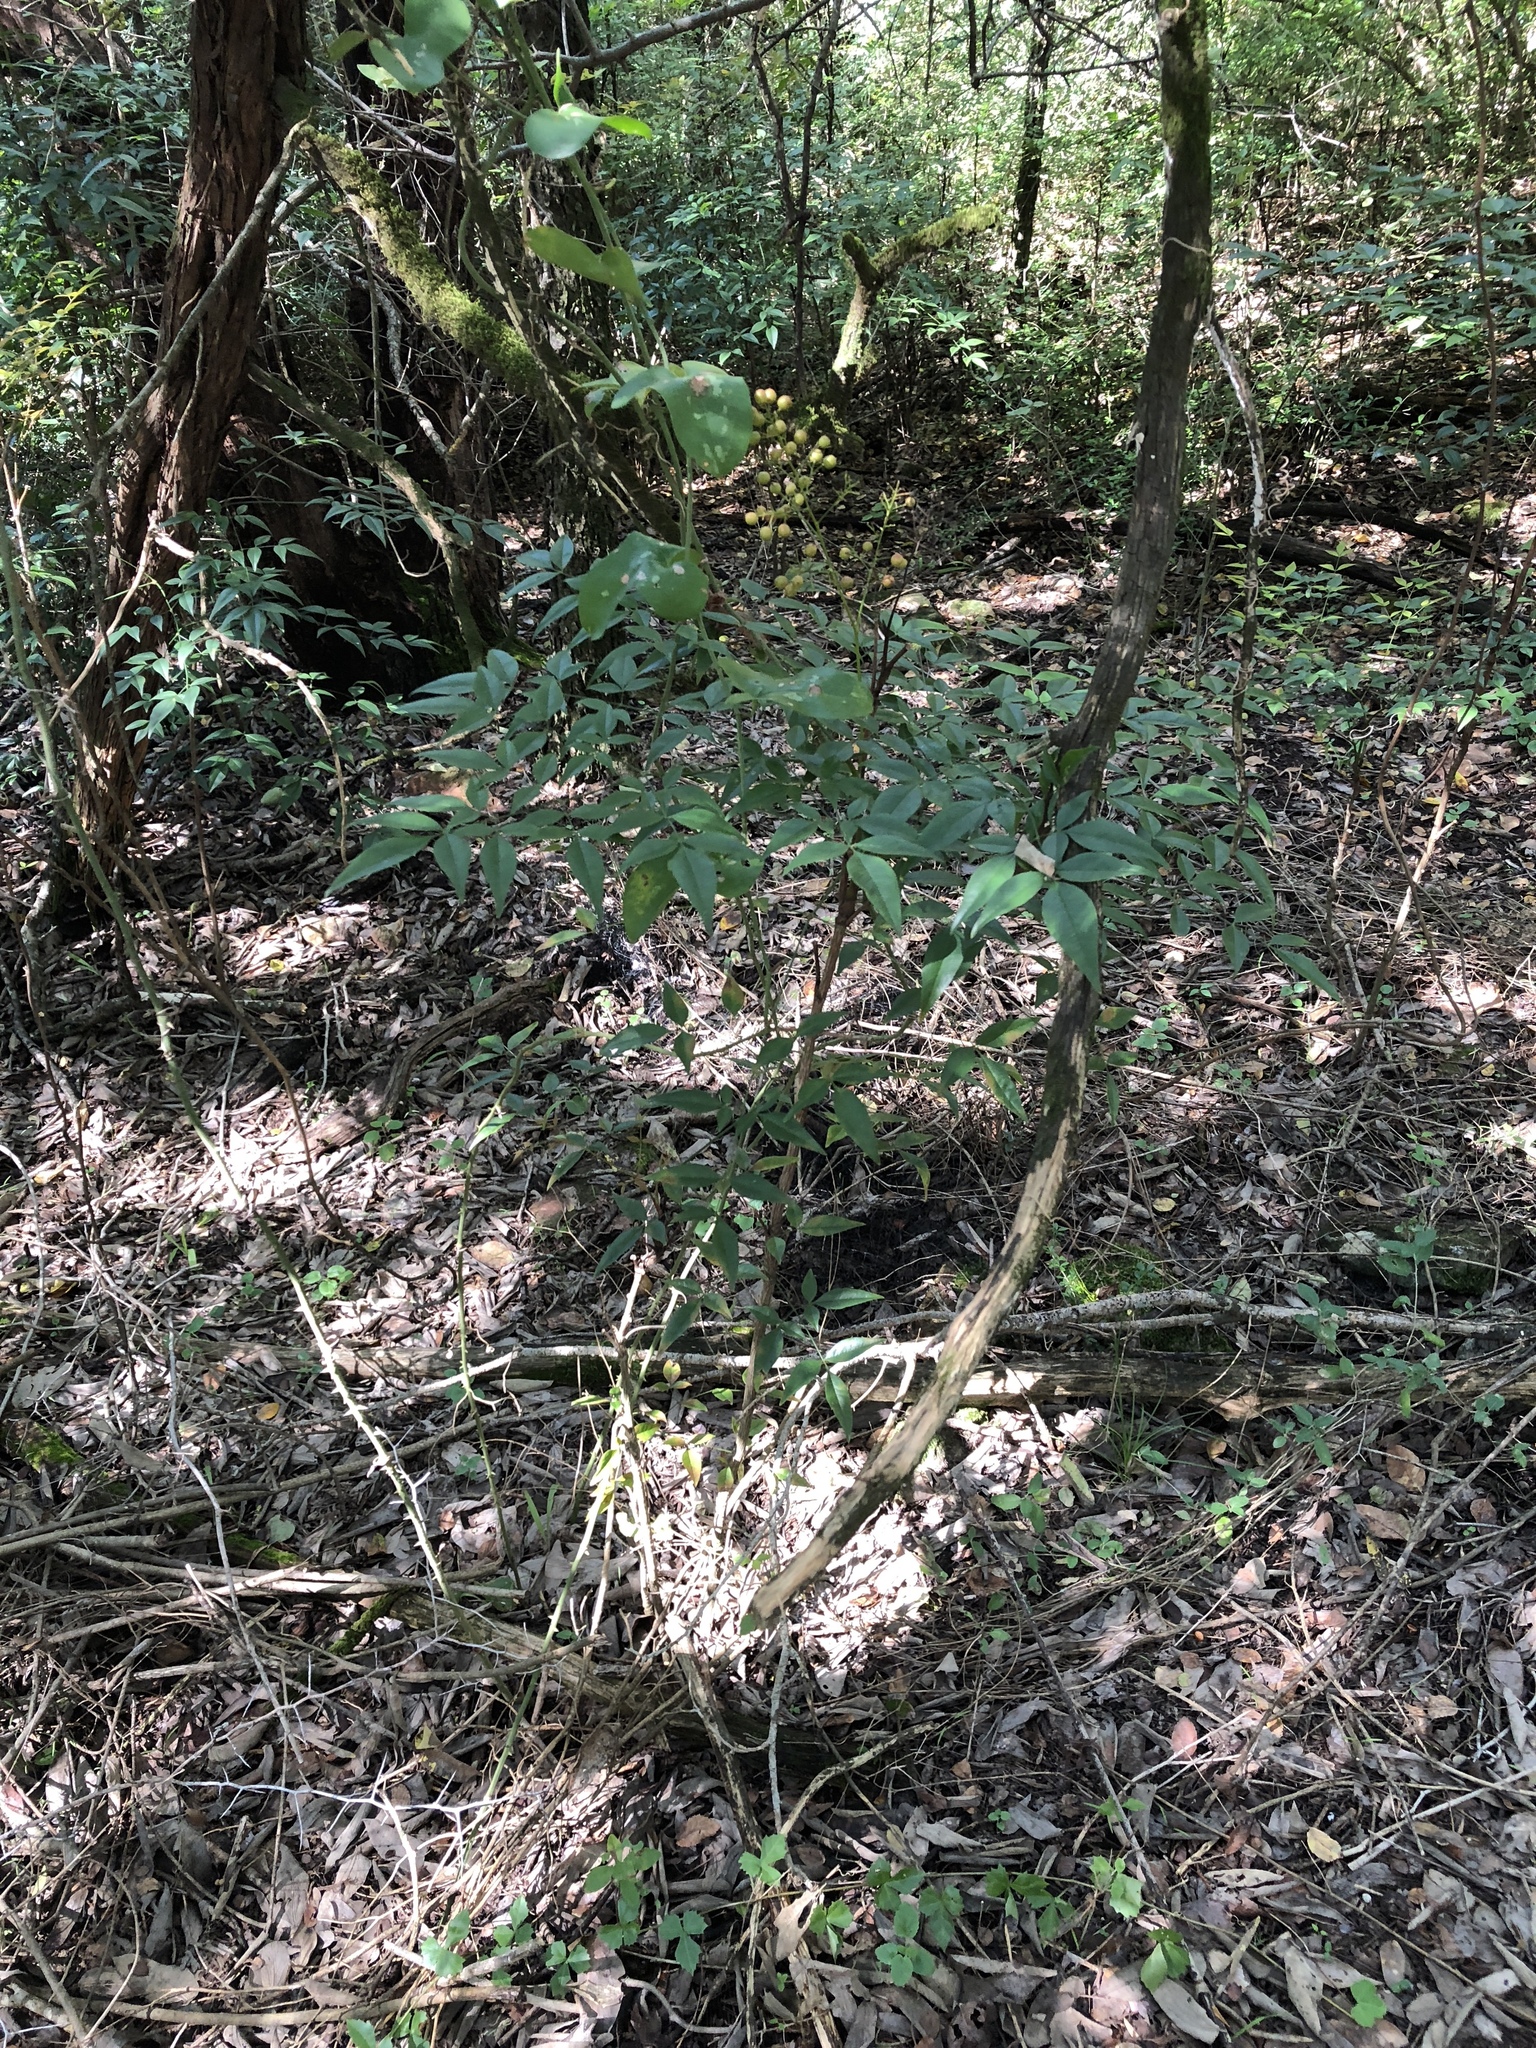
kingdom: Plantae
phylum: Tracheophyta
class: Magnoliopsida
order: Ranunculales
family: Berberidaceae
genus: Nandina
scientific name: Nandina domestica
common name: Sacred bamboo
